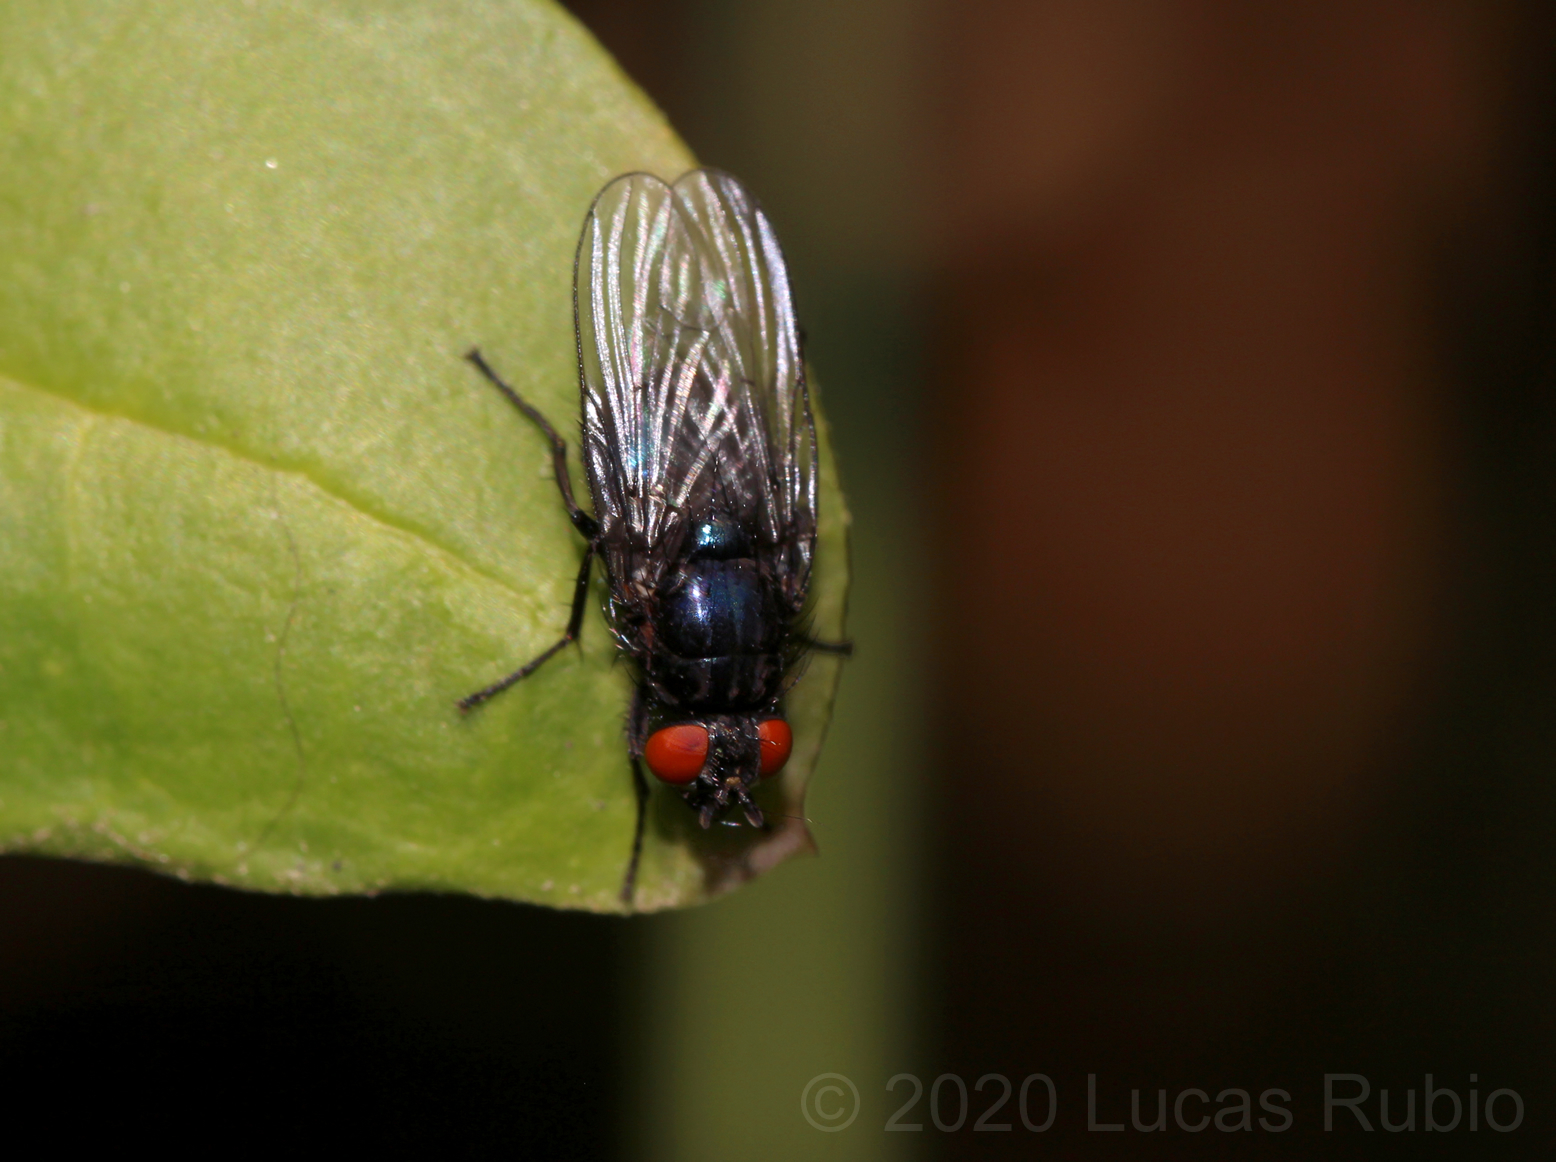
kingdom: Animalia
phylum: Arthropoda
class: Insecta
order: Diptera
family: Muscidae
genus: Psilochaeta
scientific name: Psilochaeta chalybea
